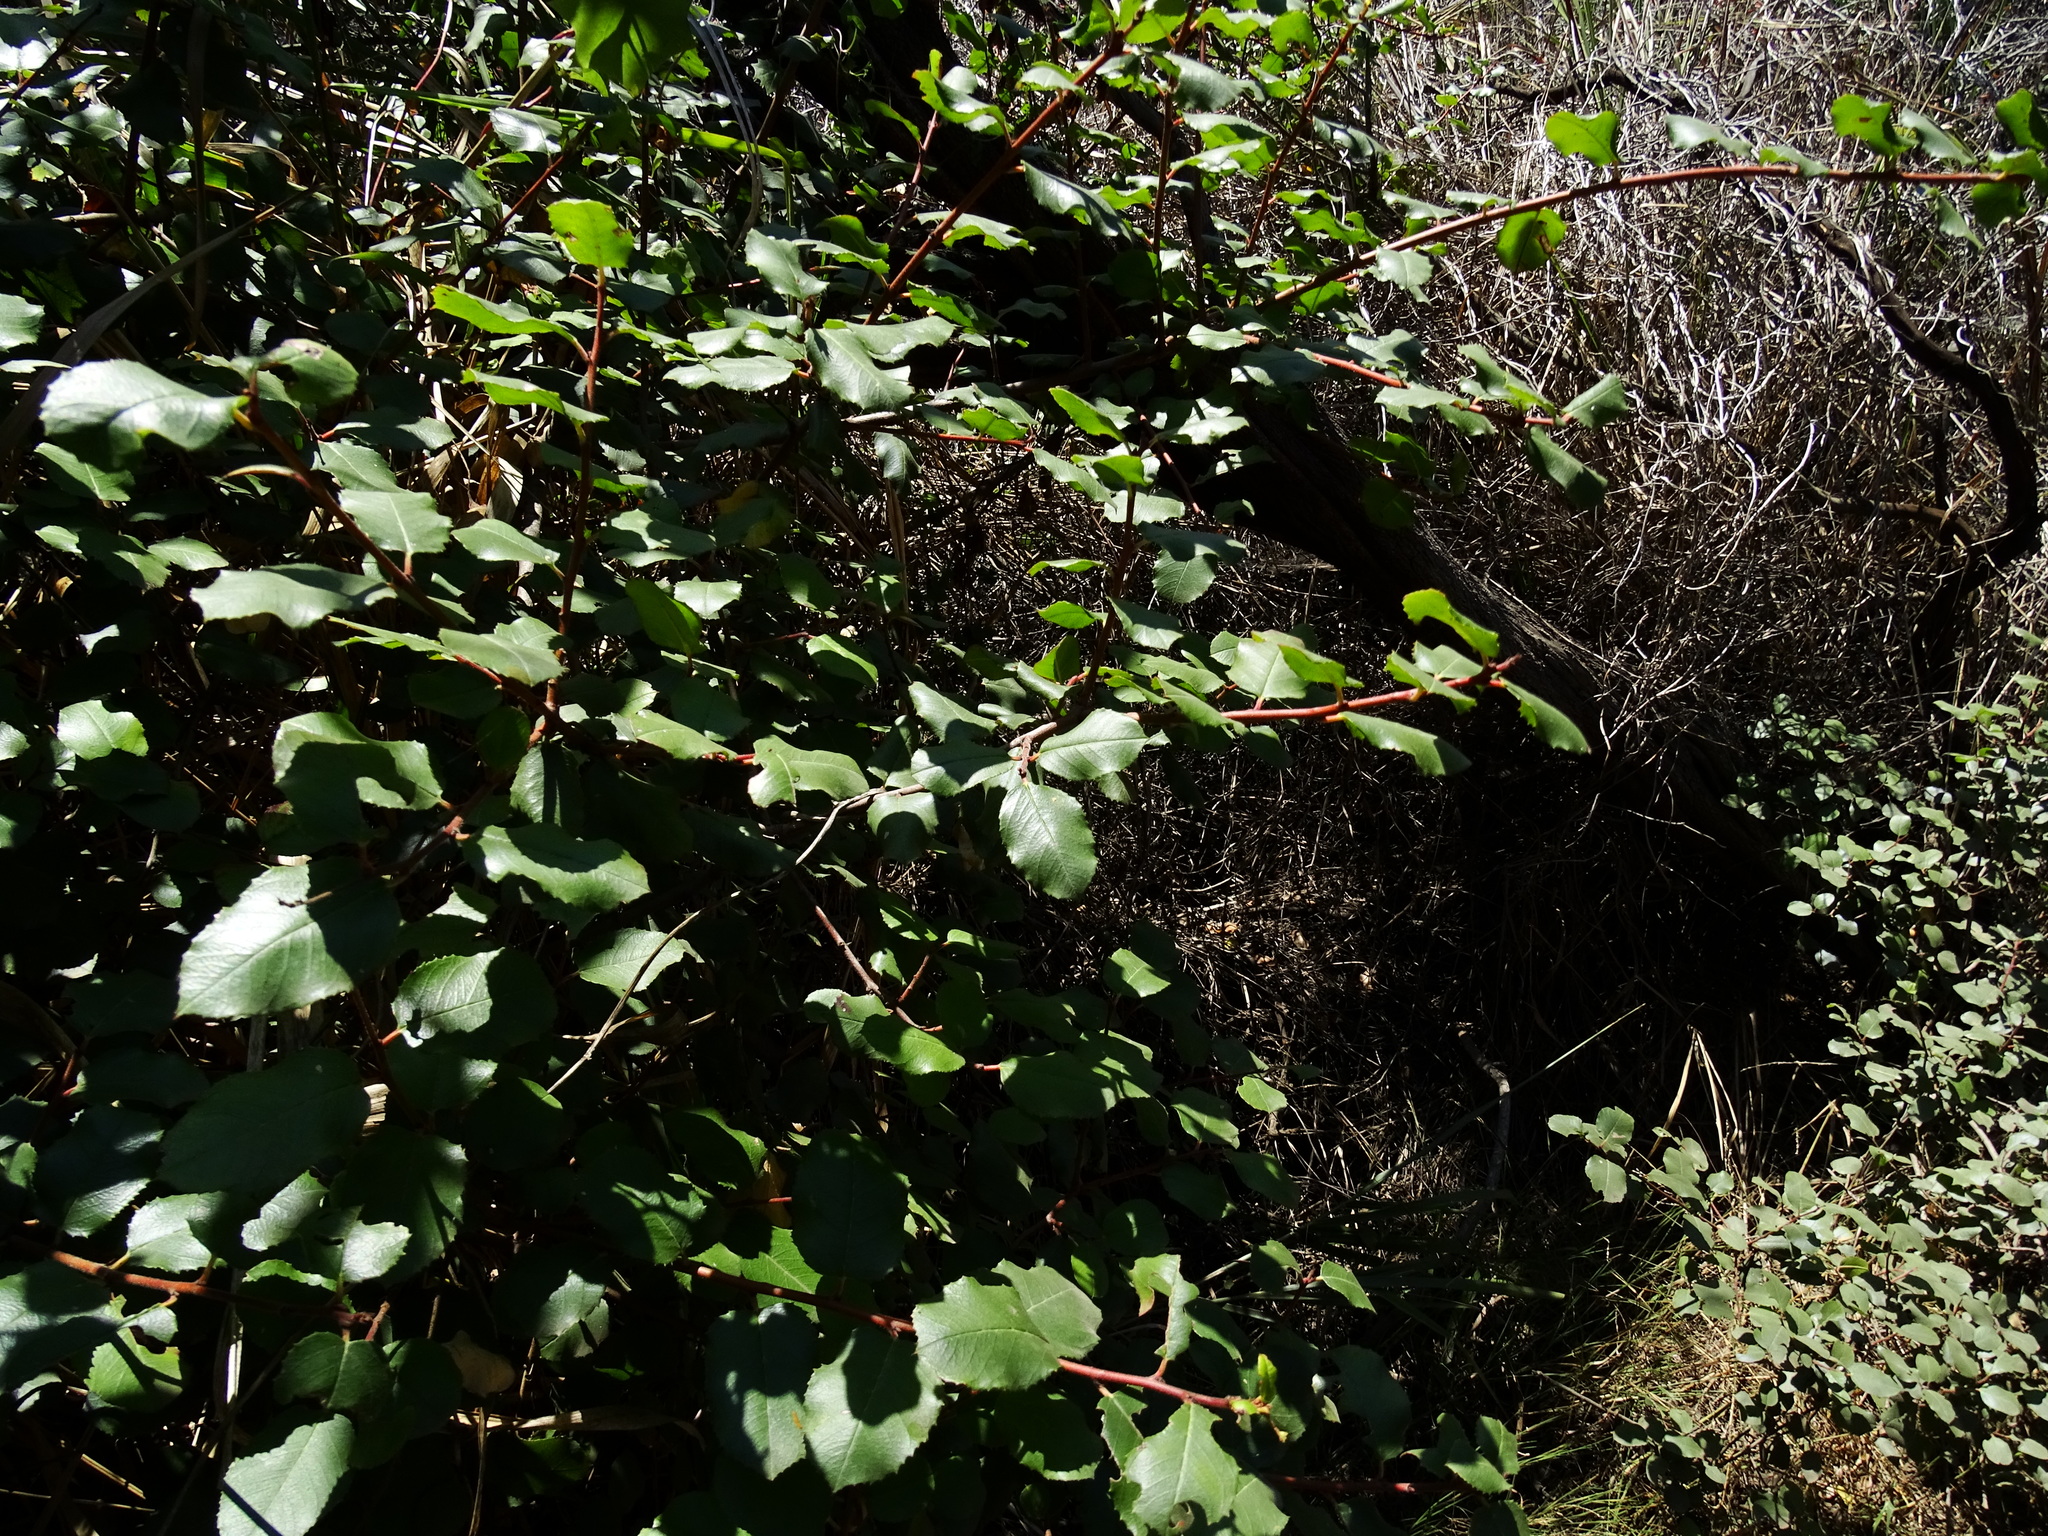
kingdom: Plantae
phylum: Tracheophyta
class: Magnoliopsida
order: Rosales
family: Rhamnaceae
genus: Endotropis
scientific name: Endotropis crocea
